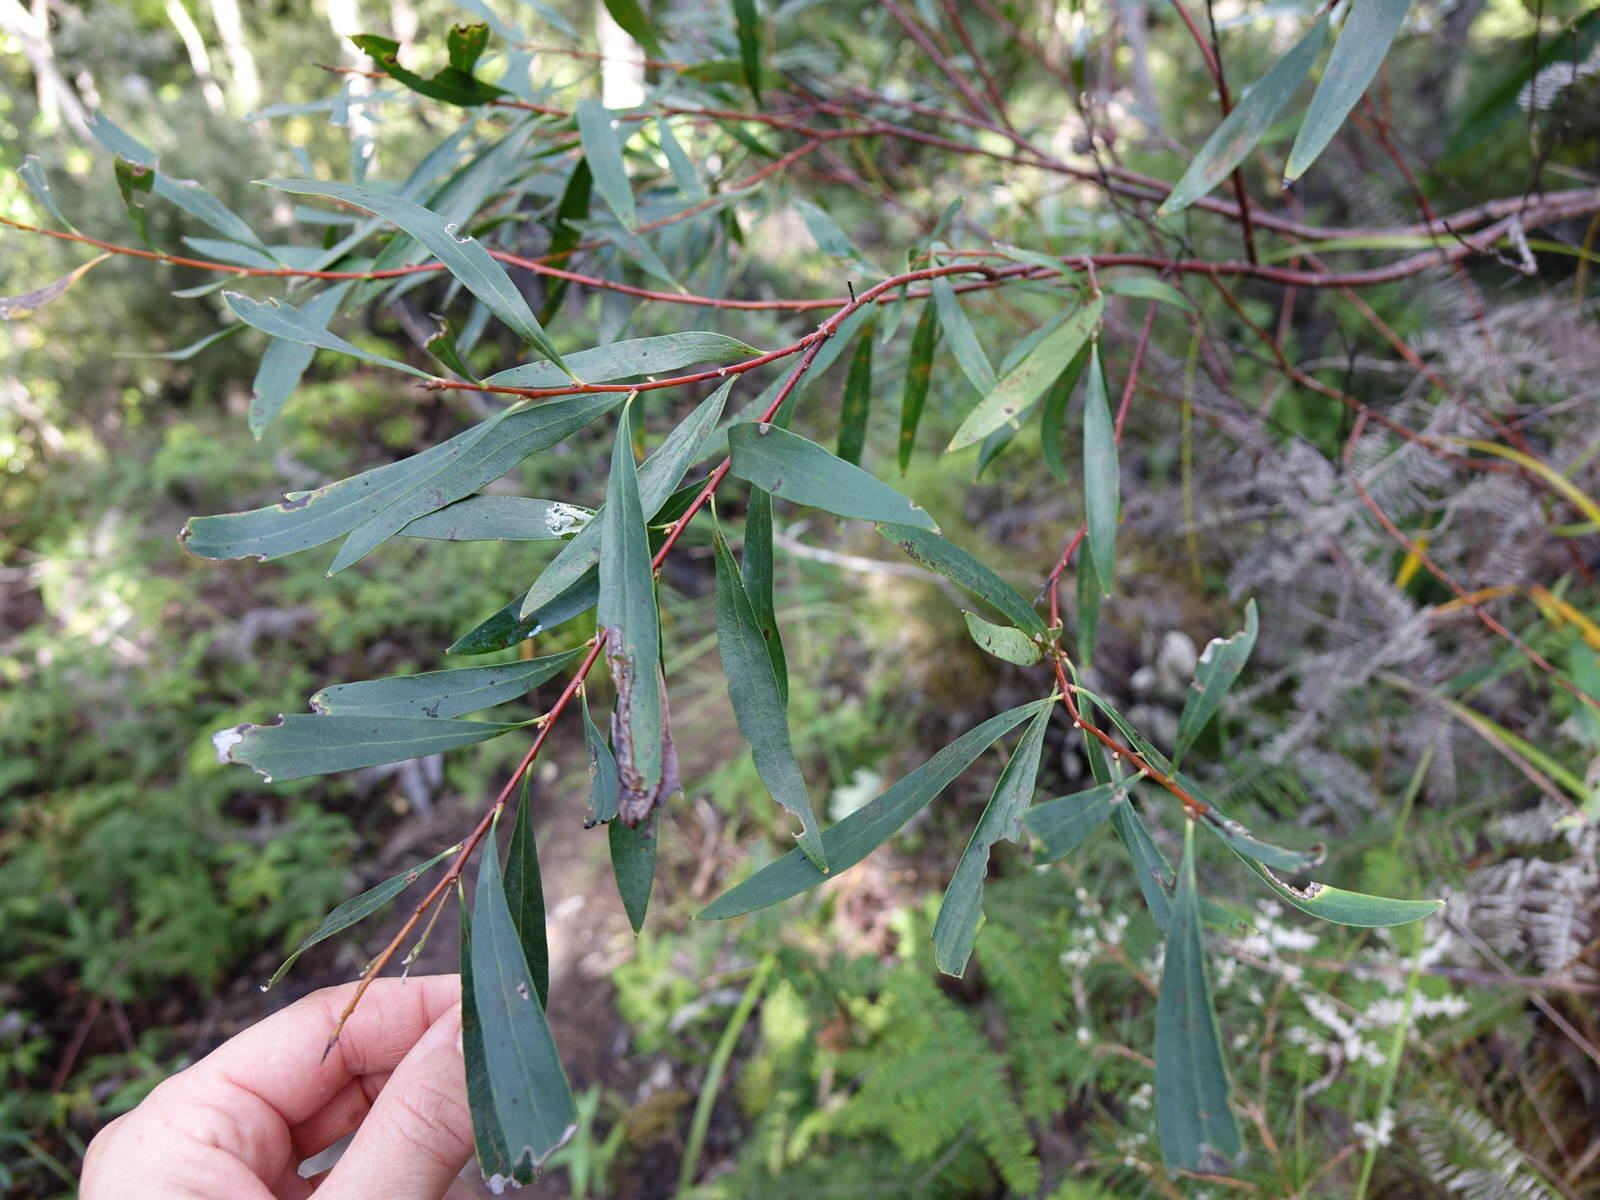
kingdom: Plantae
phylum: Tracheophyta
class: Magnoliopsida
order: Proteales
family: Proteaceae
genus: Hakea
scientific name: Hakea salicifolia
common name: Willow hakea
